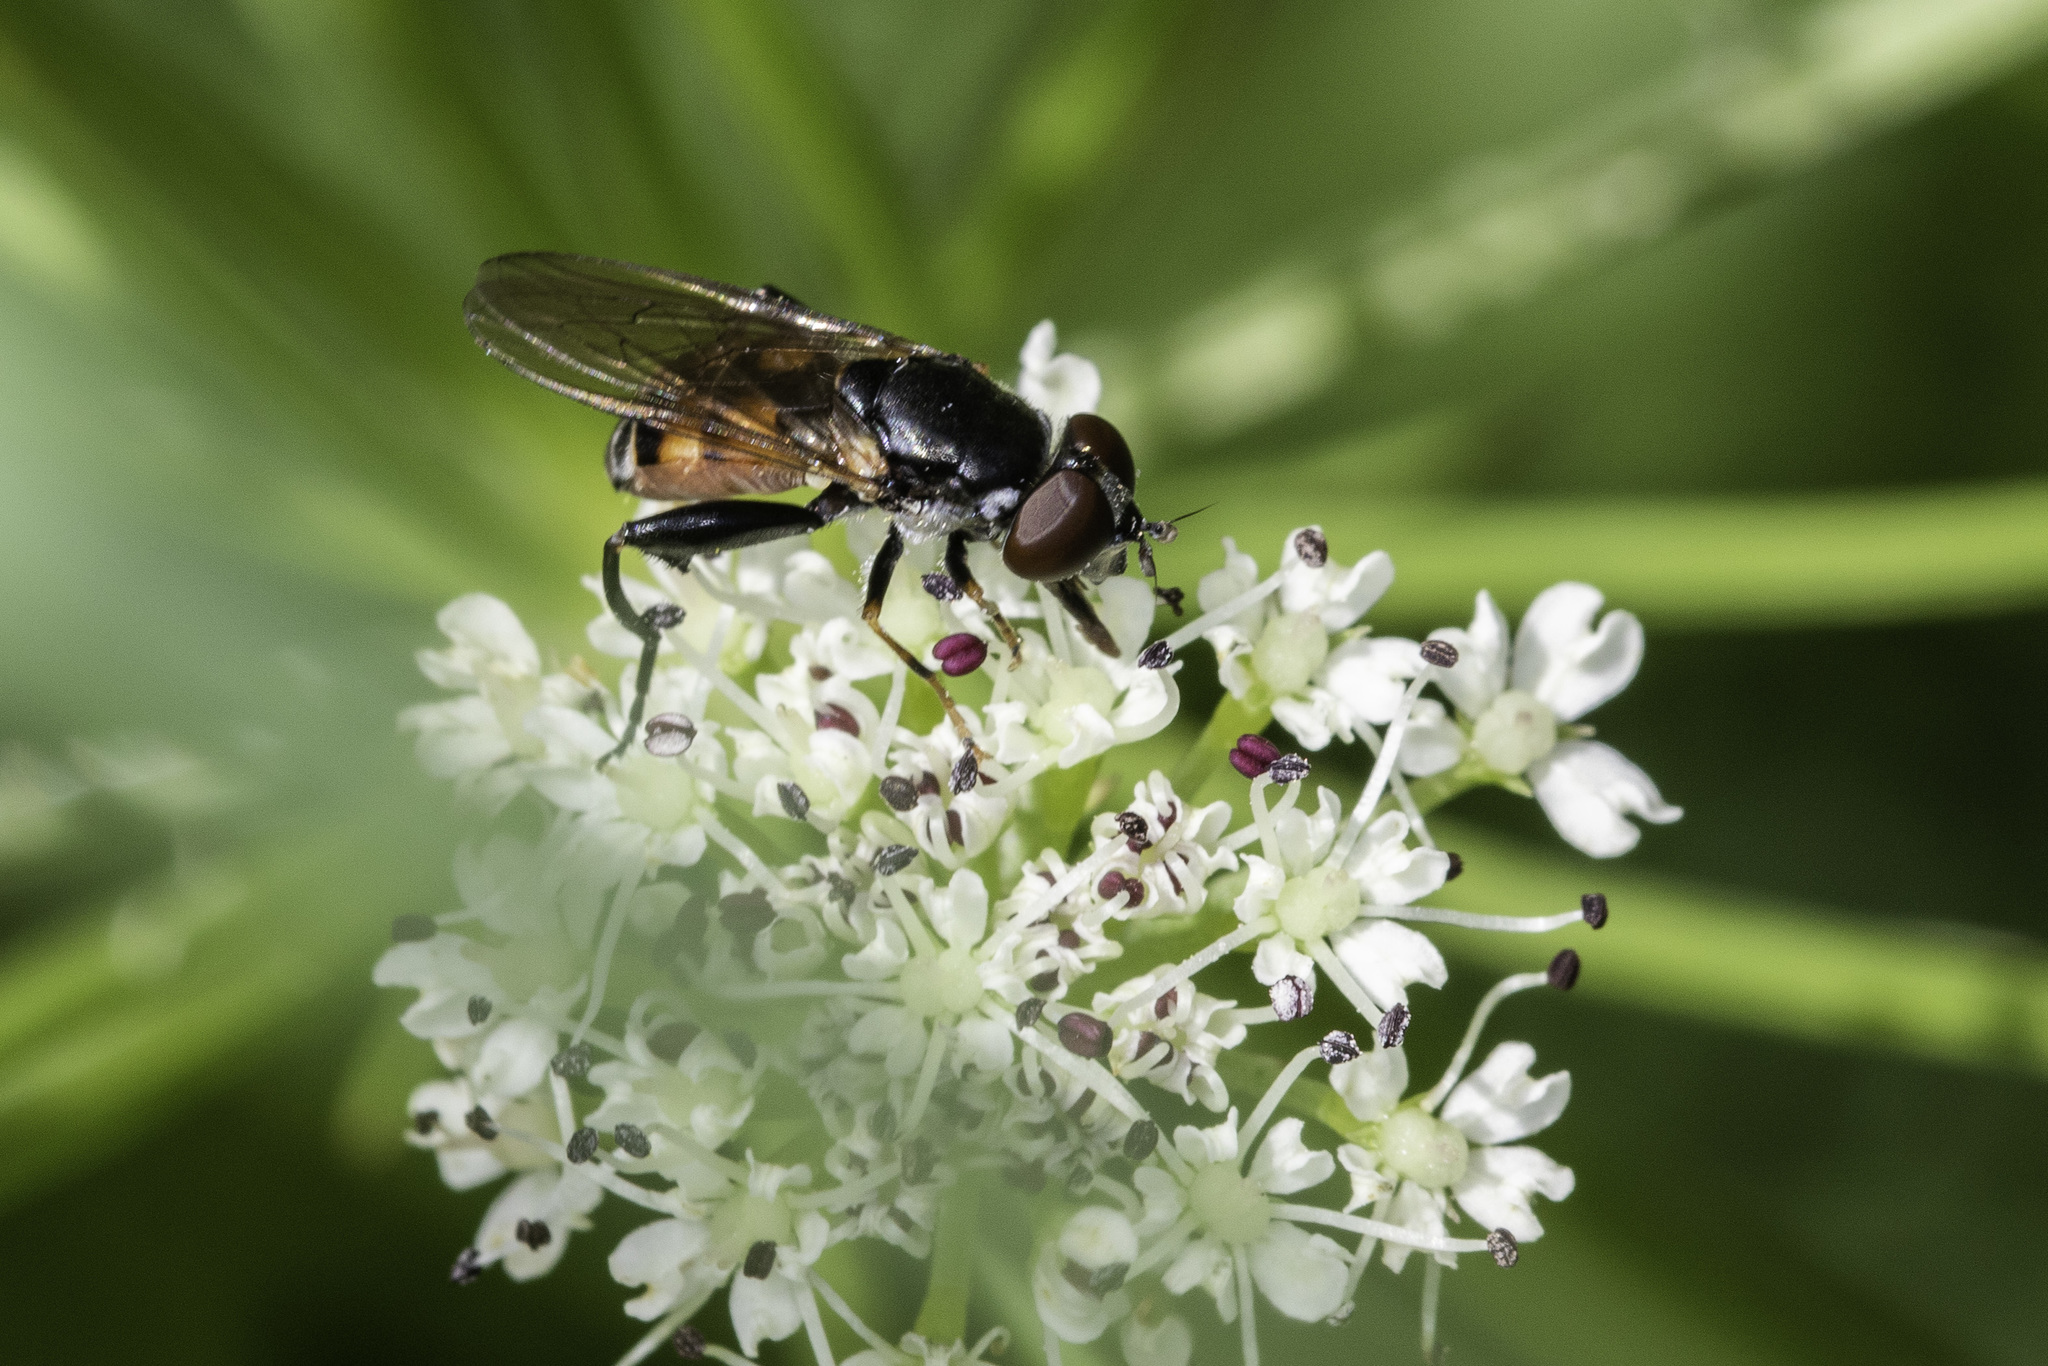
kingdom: Animalia
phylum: Arthropoda
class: Insecta
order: Diptera
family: Syrphidae
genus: Tropidia
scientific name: Tropidia scita
